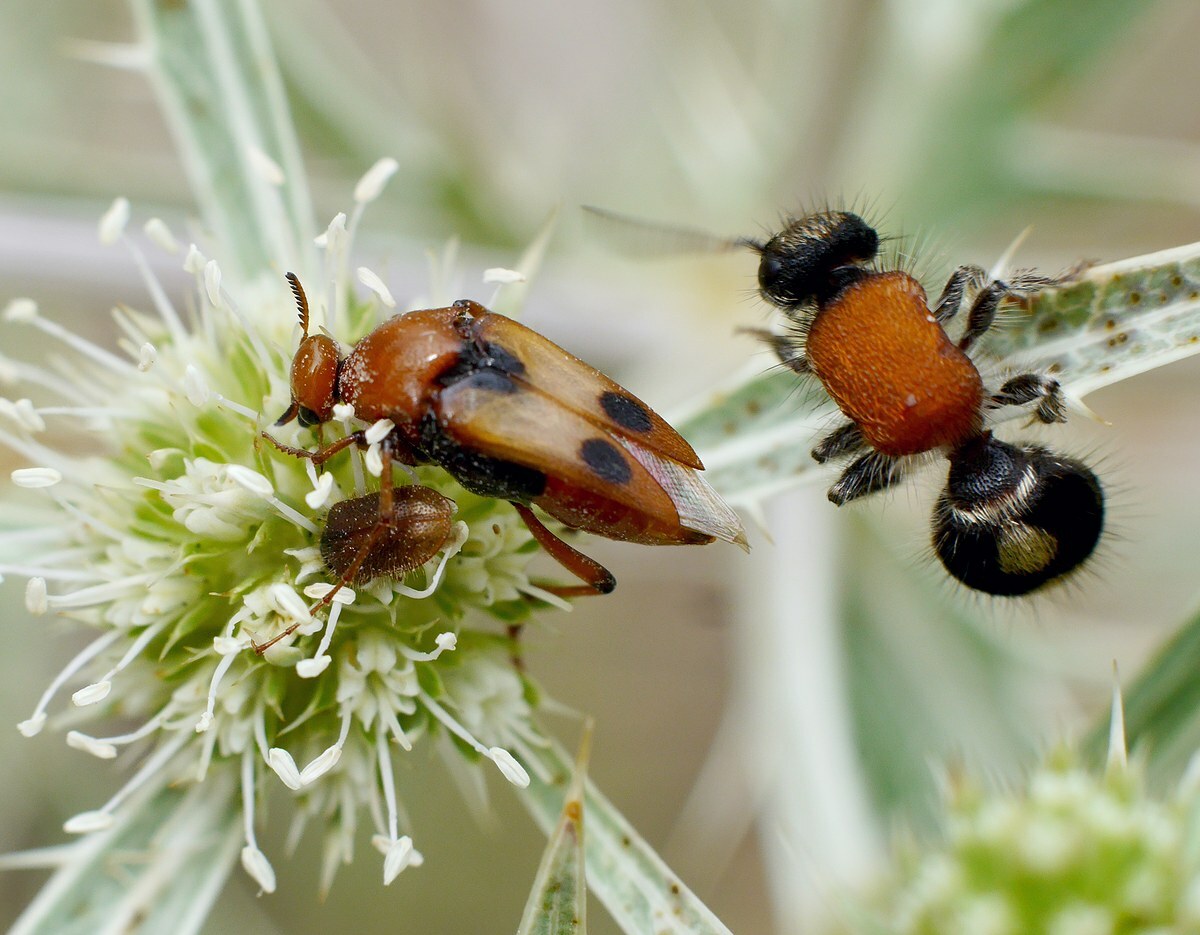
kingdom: Animalia
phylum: Arthropoda
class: Insecta
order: Coleoptera
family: Ripiphoridae
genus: Macrosiagon
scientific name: Macrosiagon bimaculata
